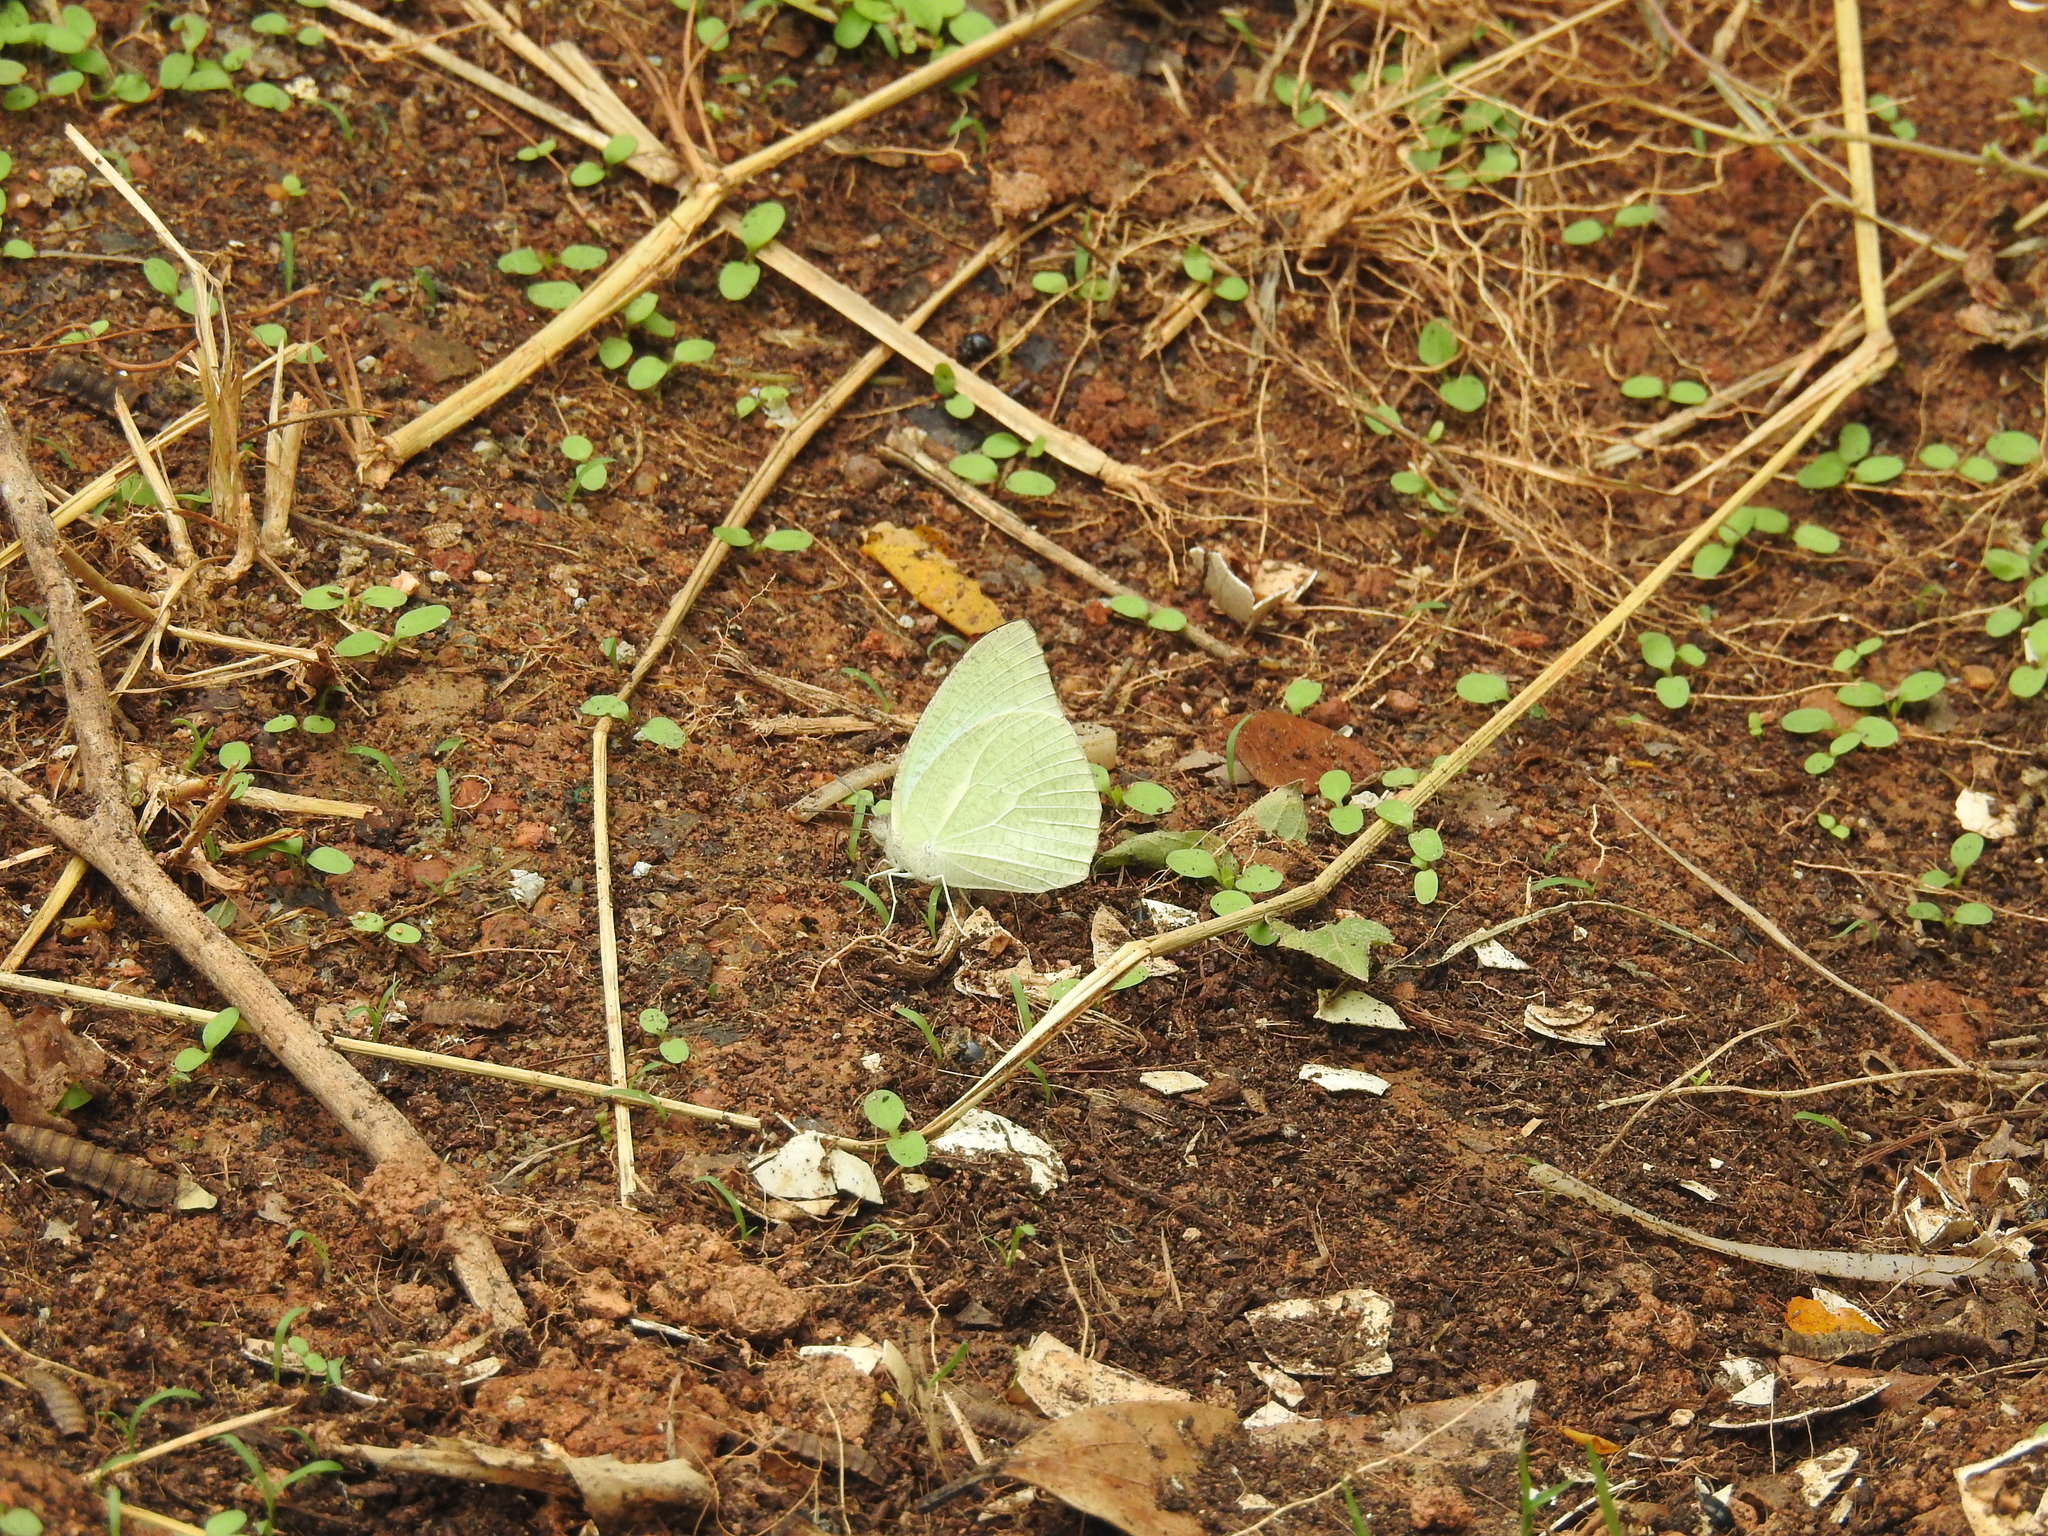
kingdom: Animalia
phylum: Arthropoda
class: Insecta
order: Lepidoptera
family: Pieridae
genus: Catopsilia
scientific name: Catopsilia pyranthe
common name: Mottled emigrant
